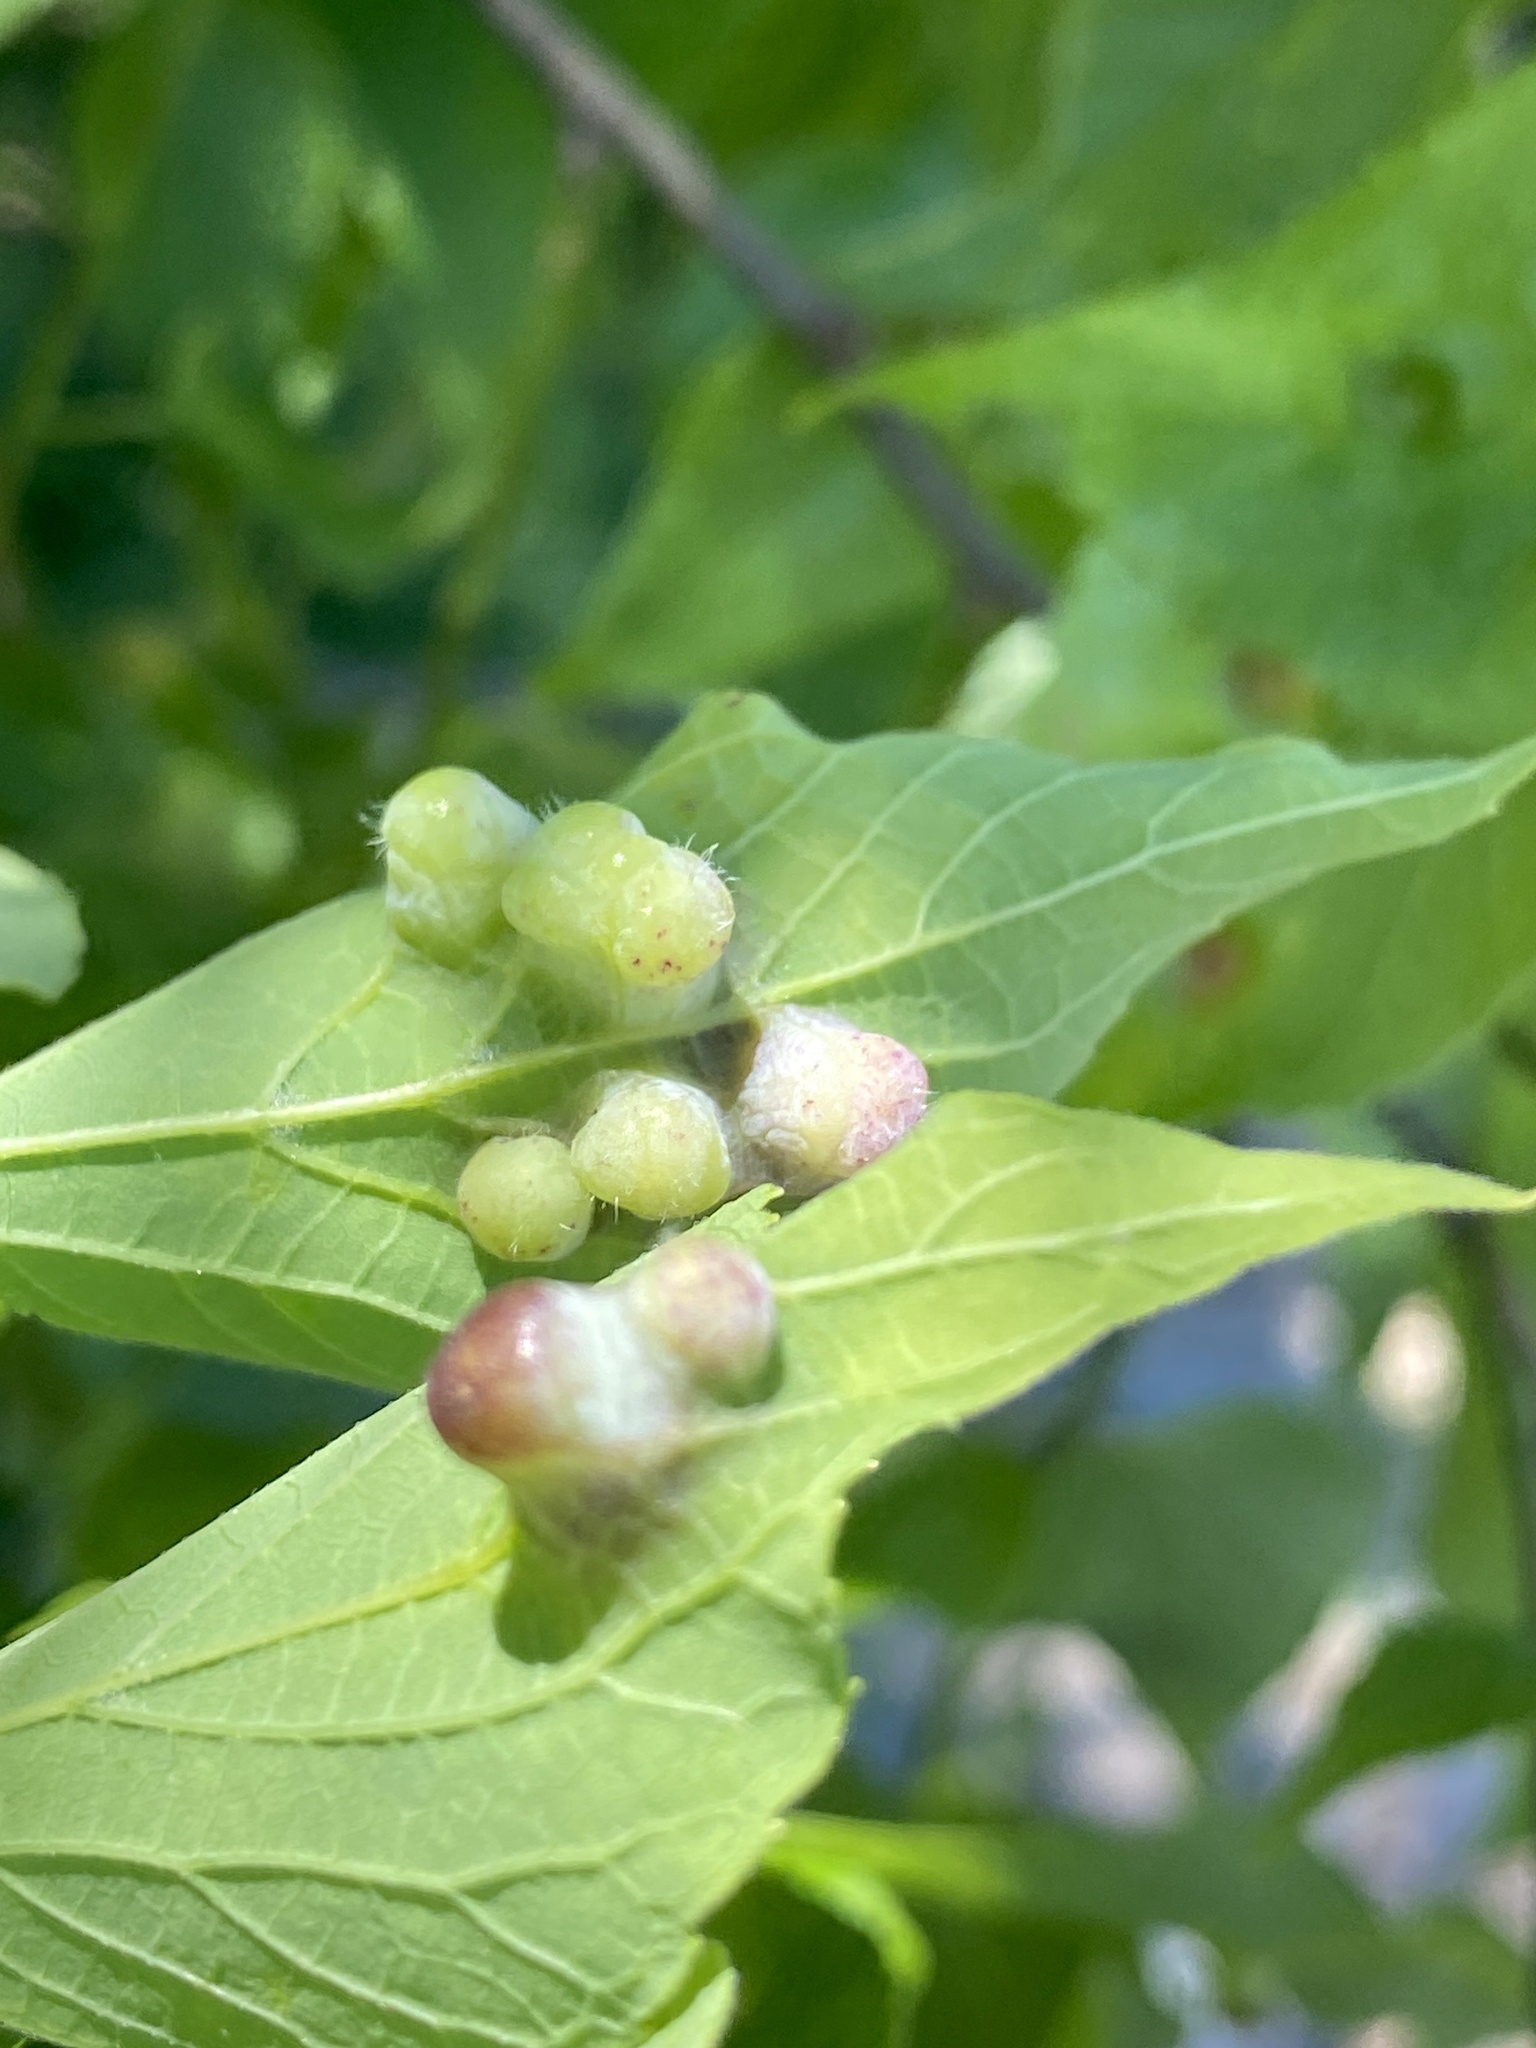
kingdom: Animalia
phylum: Arthropoda
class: Insecta
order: Hemiptera
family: Aphalaridae
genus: Pachypsylla
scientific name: Pachypsylla celtidismamma
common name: Hackberry nipplegall psyllid
